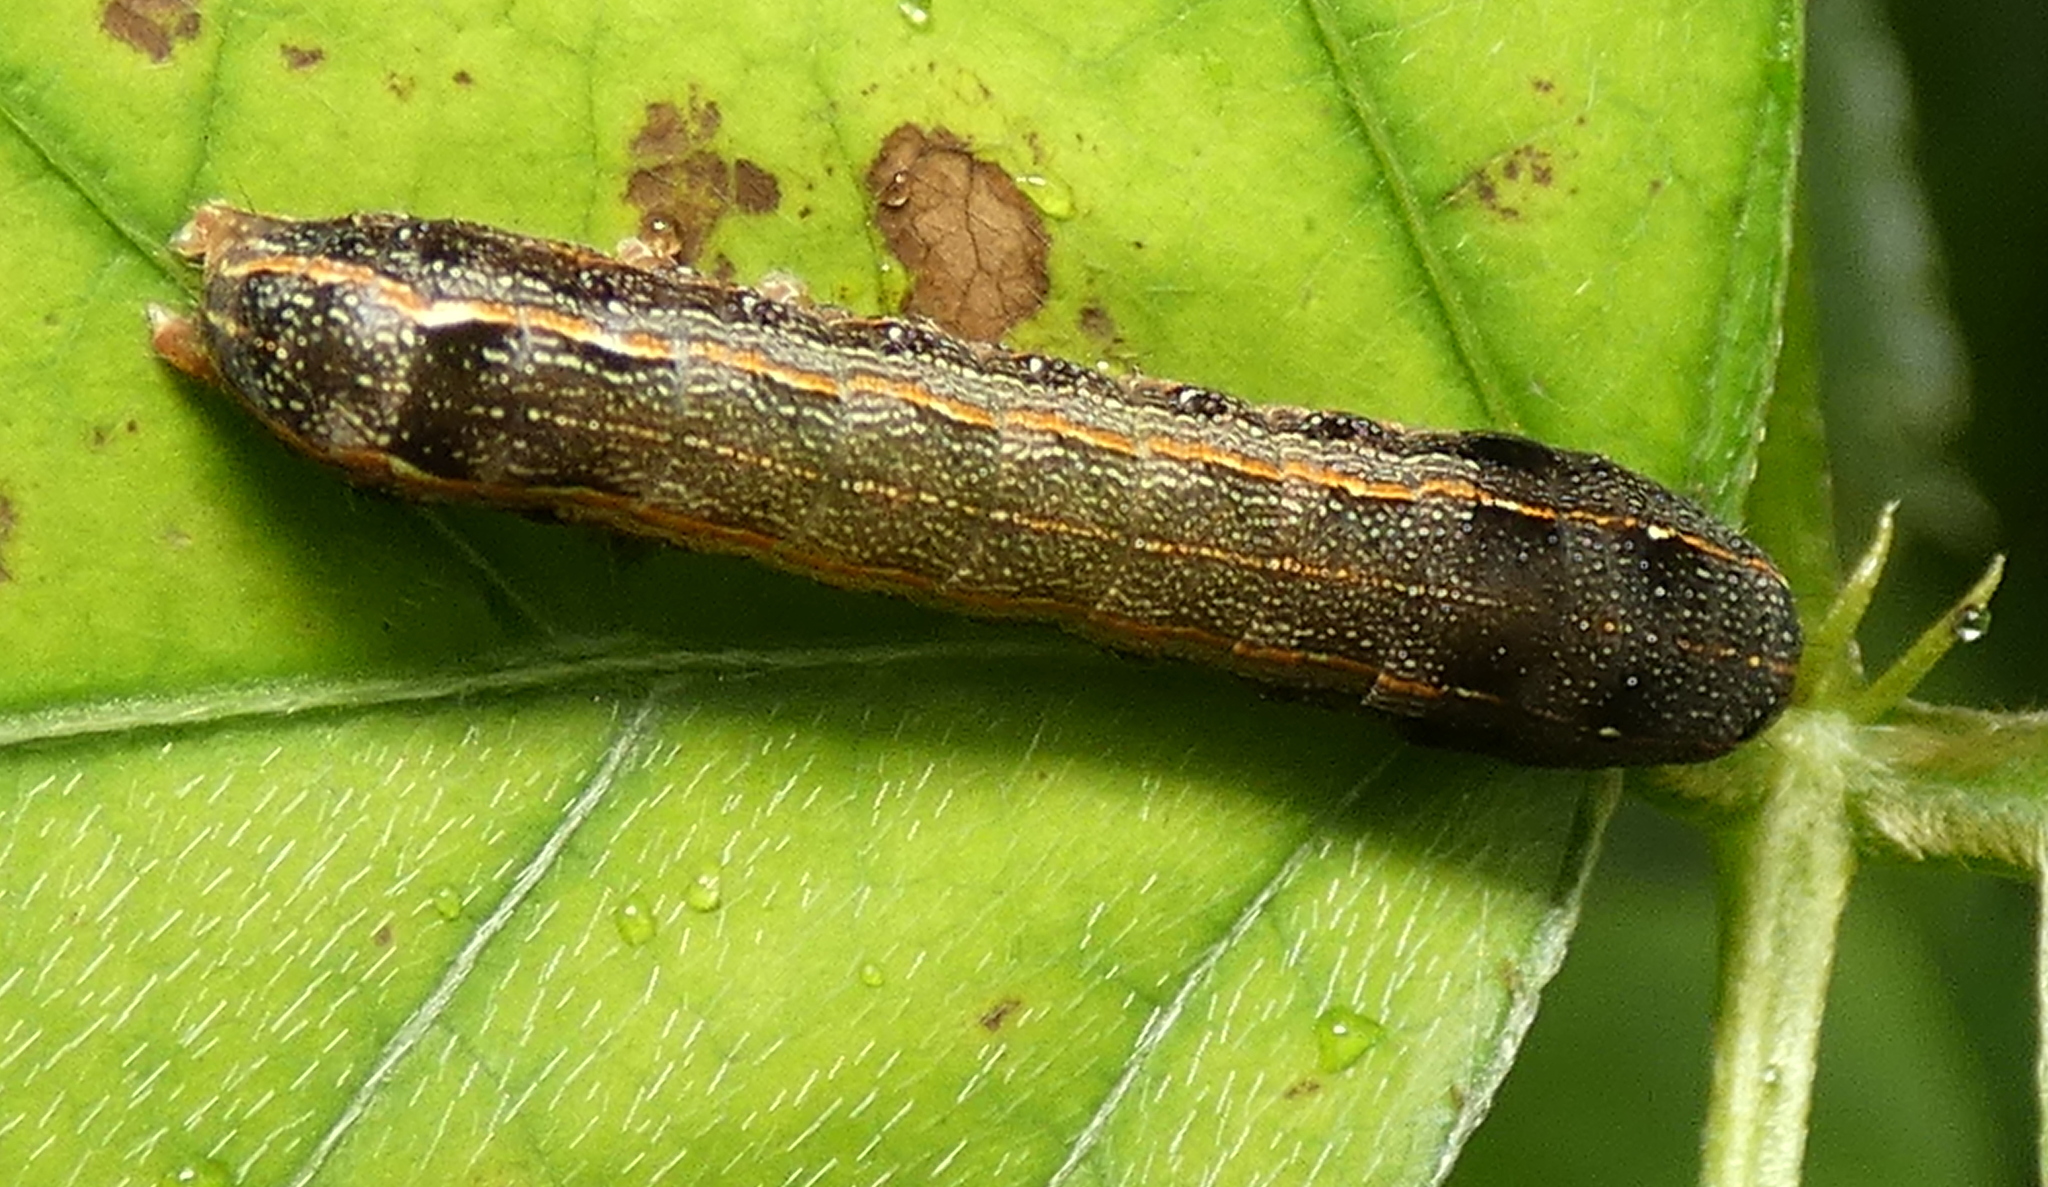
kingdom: Animalia
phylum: Arthropoda
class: Insecta
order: Lepidoptera
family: Noctuidae
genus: Spodoptera
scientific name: Spodoptera cosmioides
